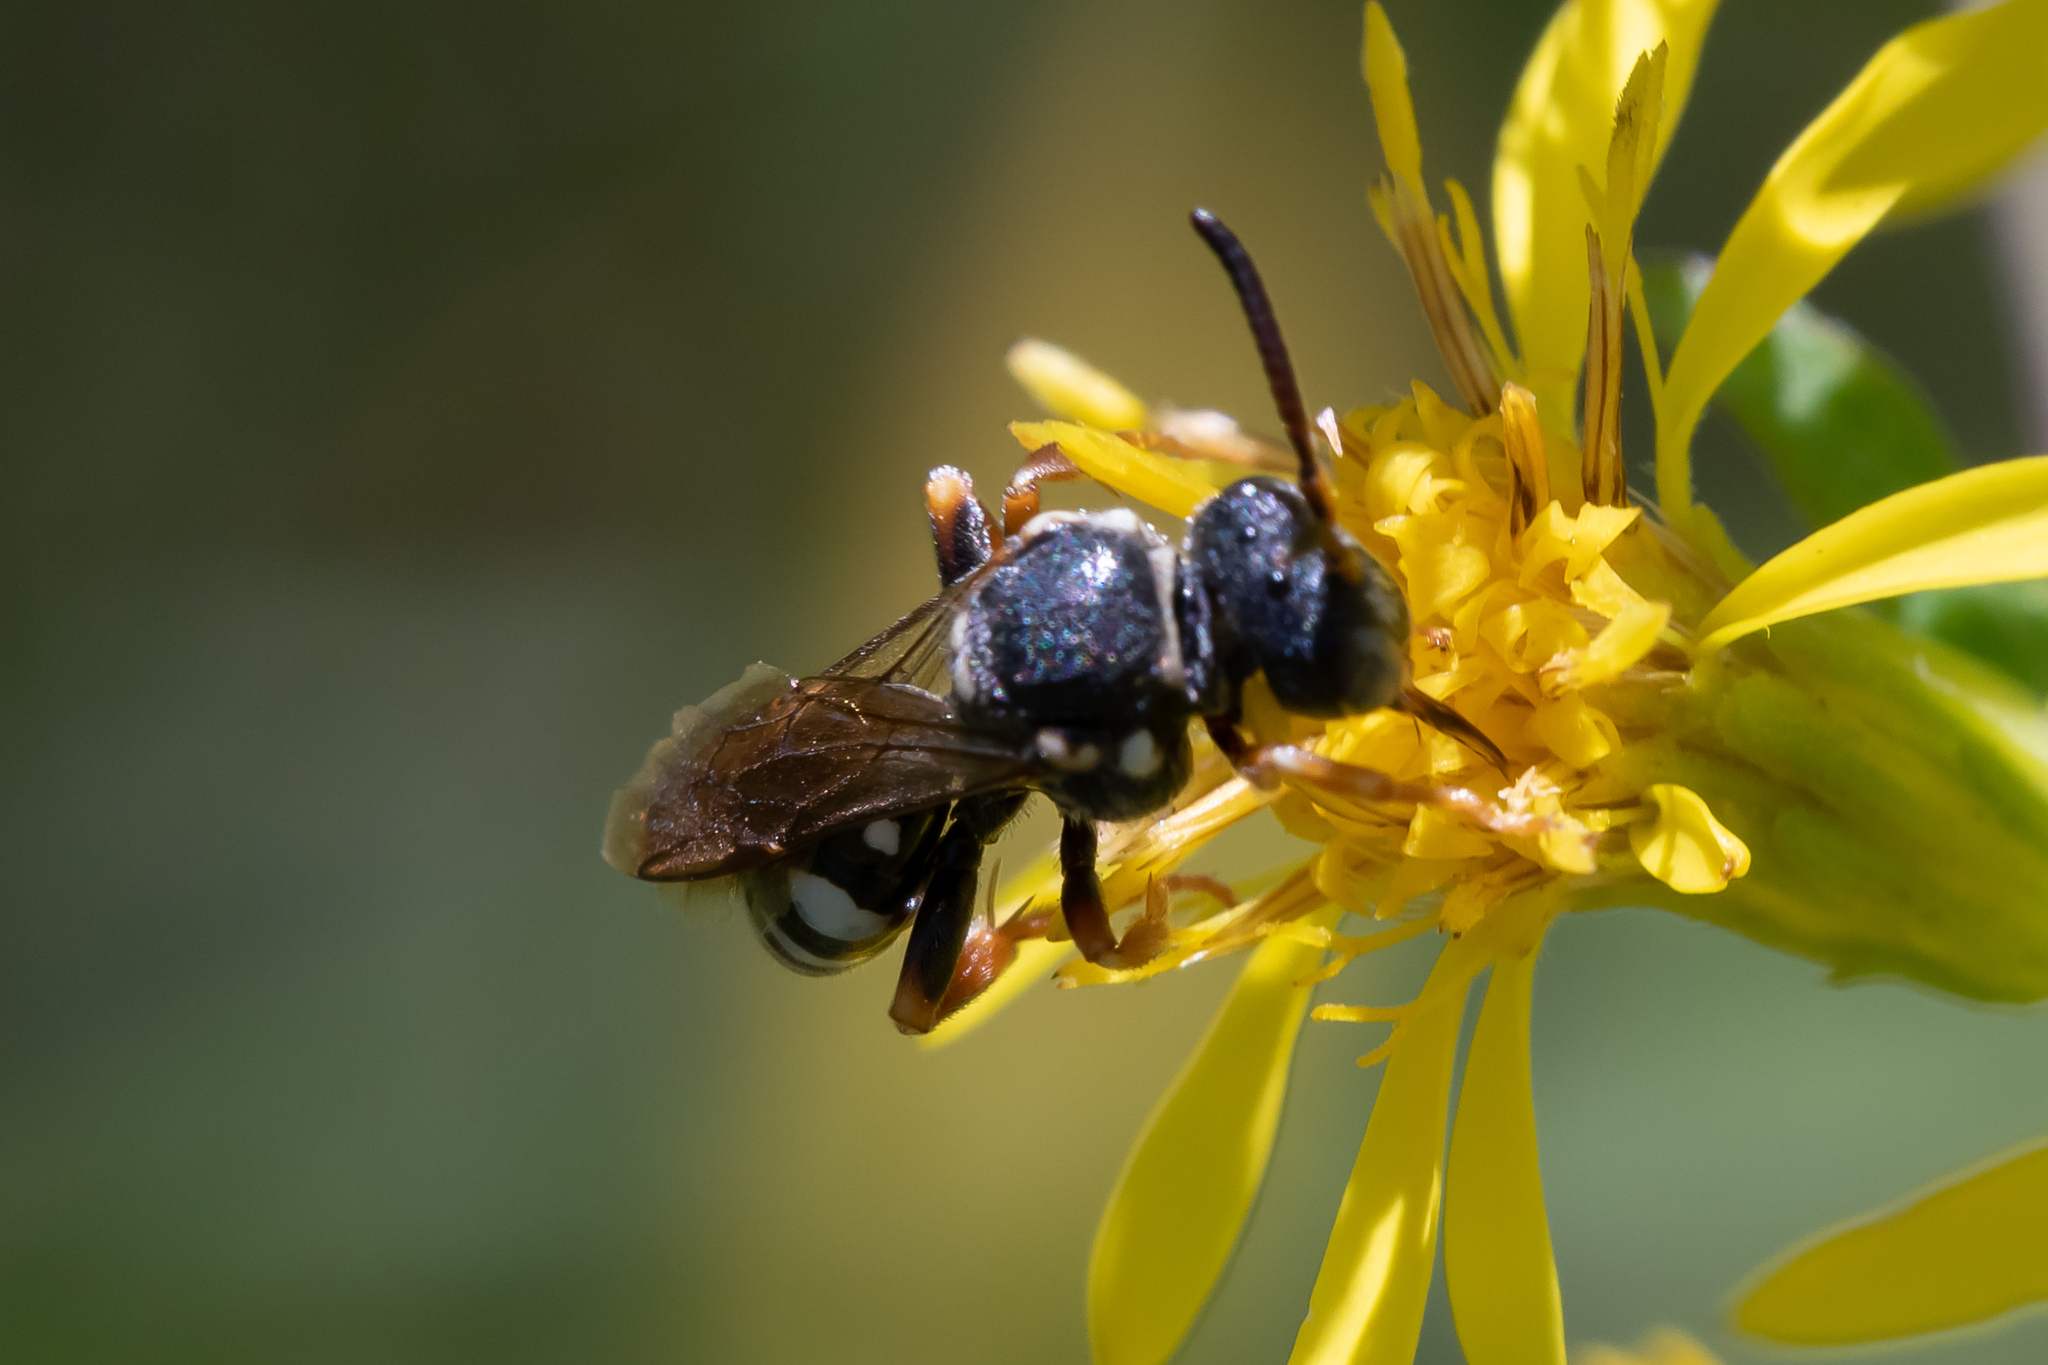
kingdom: Animalia
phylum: Arthropoda
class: Insecta
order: Hymenoptera
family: Apidae
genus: Nomada
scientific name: Nomada flavopicta
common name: Blunthorn nomad bee
